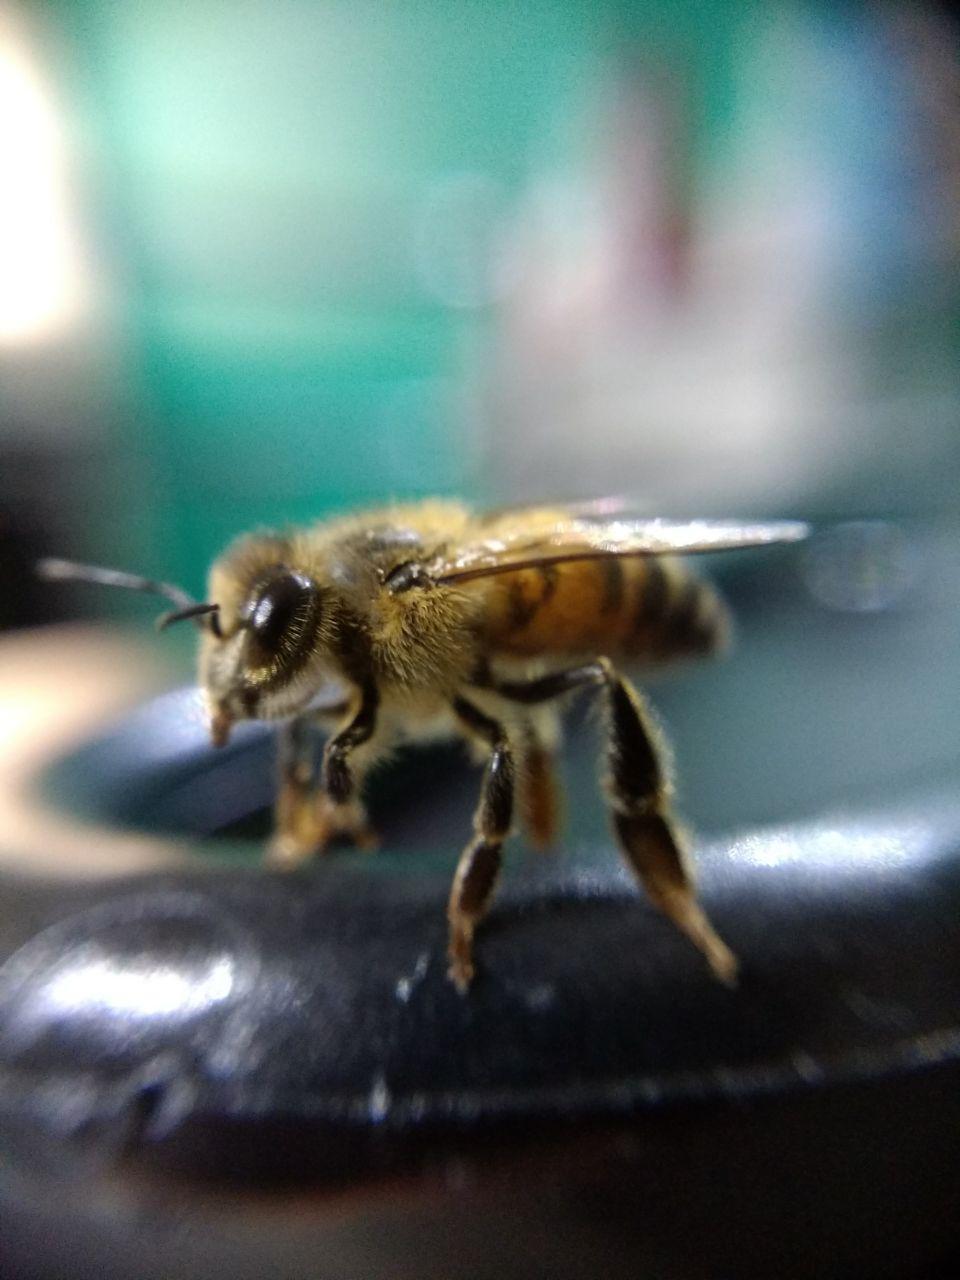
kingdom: Animalia
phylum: Arthropoda
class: Insecta
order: Hymenoptera
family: Apidae
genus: Apis
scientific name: Apis mellifera
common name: Honey bee
